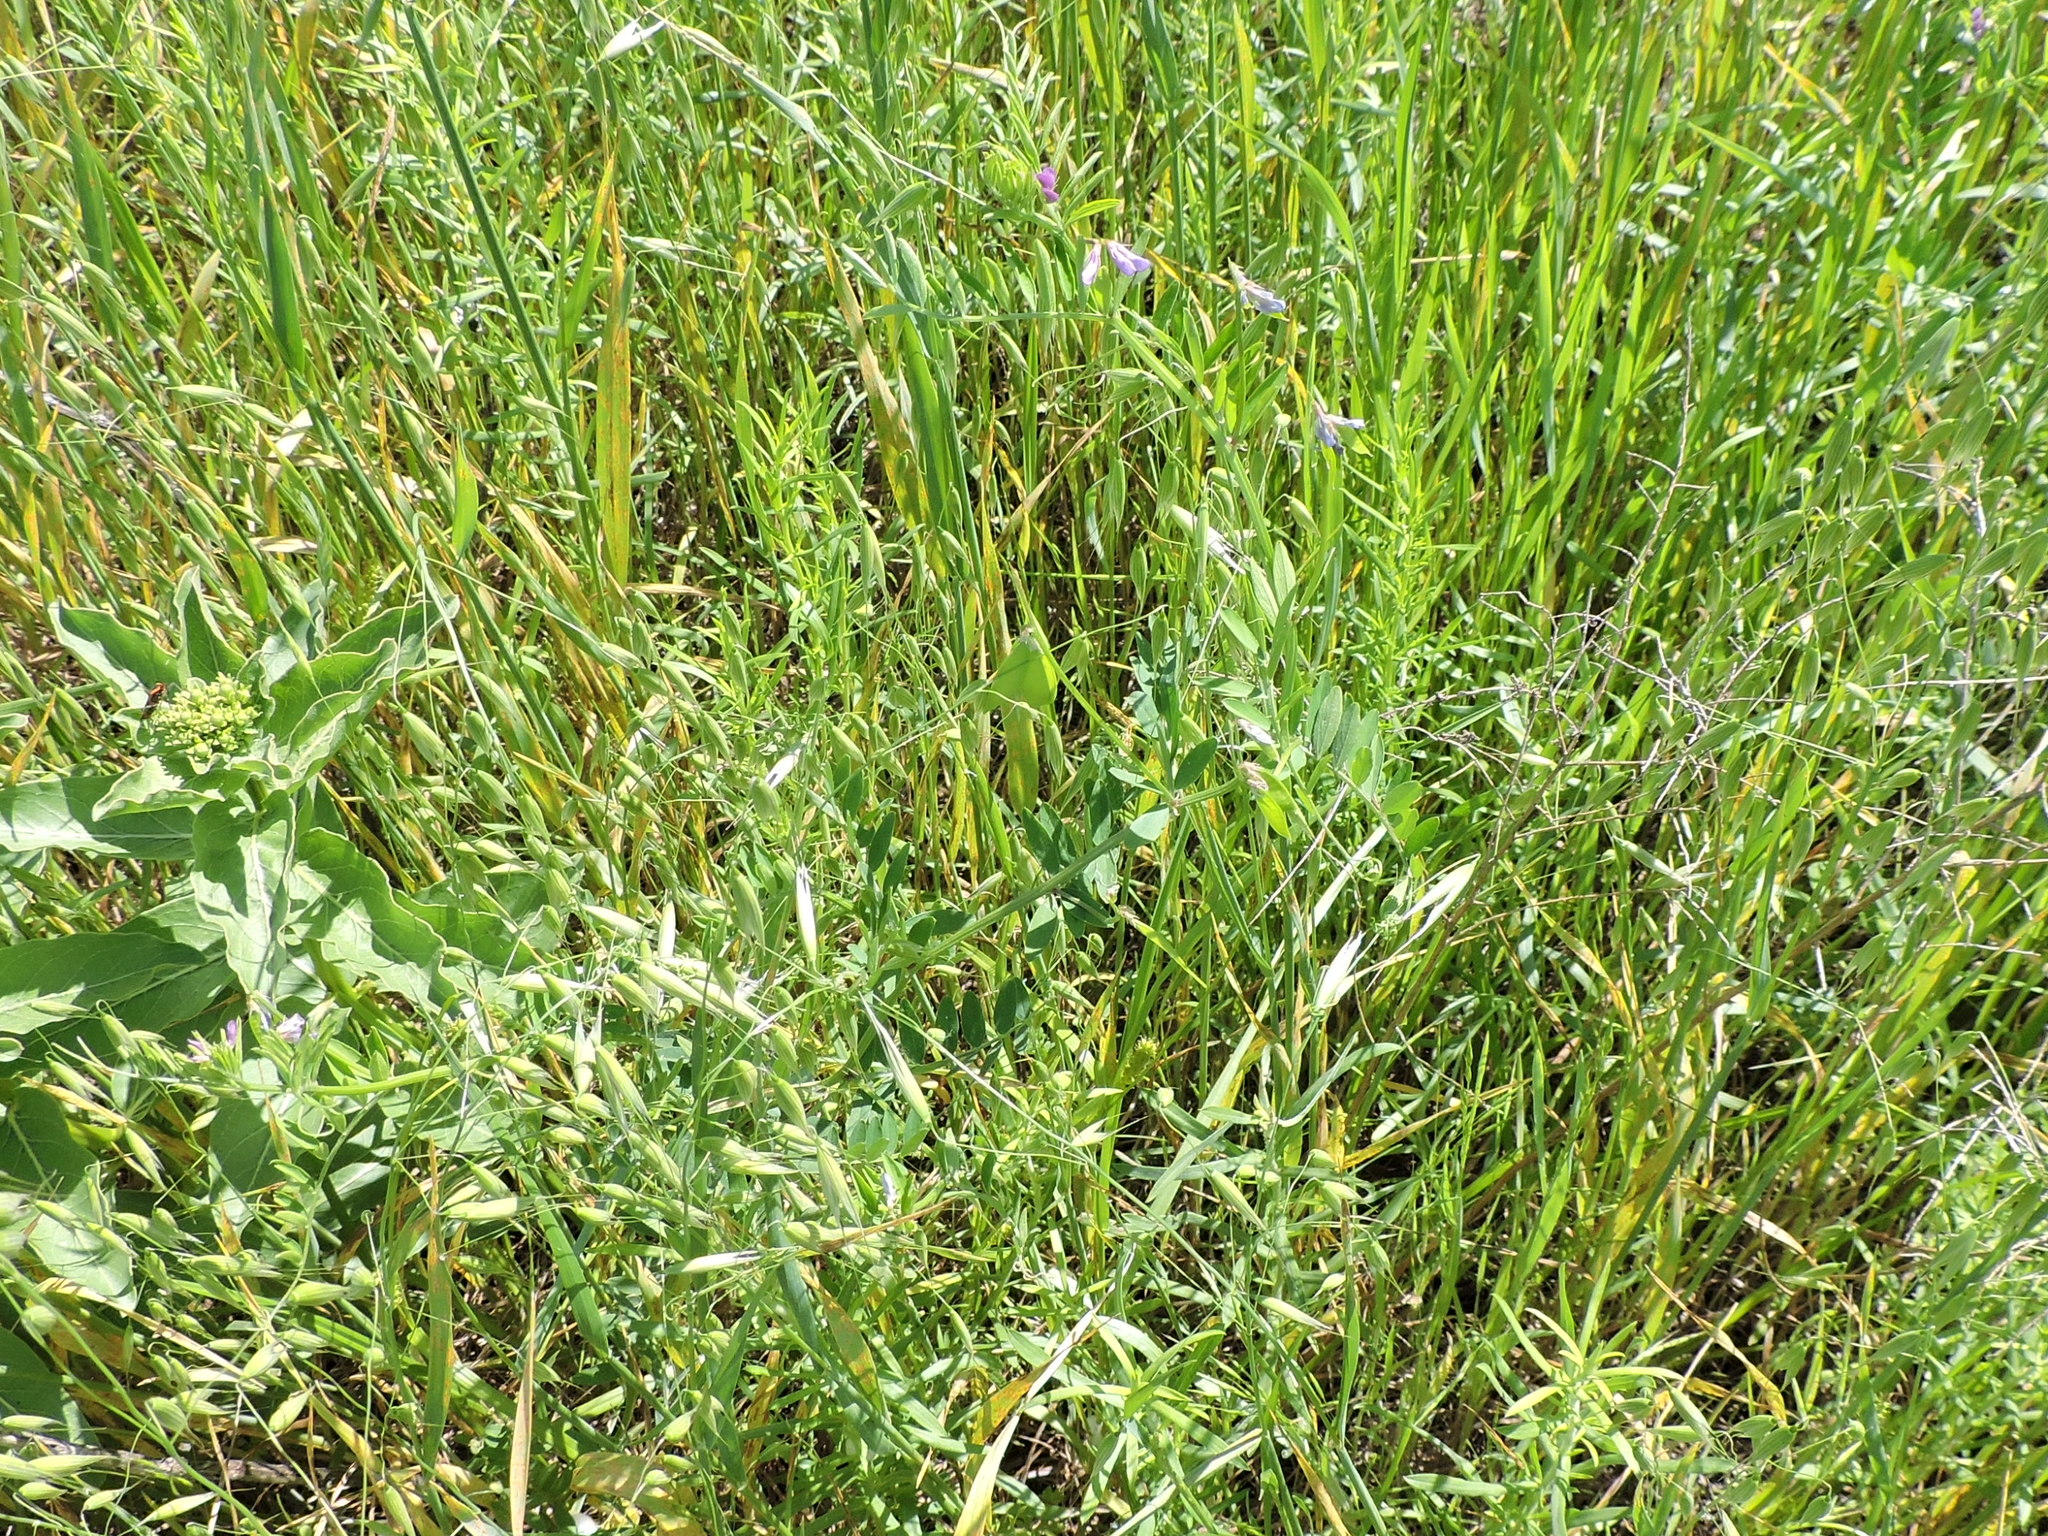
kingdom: Plantae
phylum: Tracheophyta
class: Magnoliopsida
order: Fabales
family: Fabaceae
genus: Vicia
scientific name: Vicia ludoviciana
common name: Louisiana vetch
